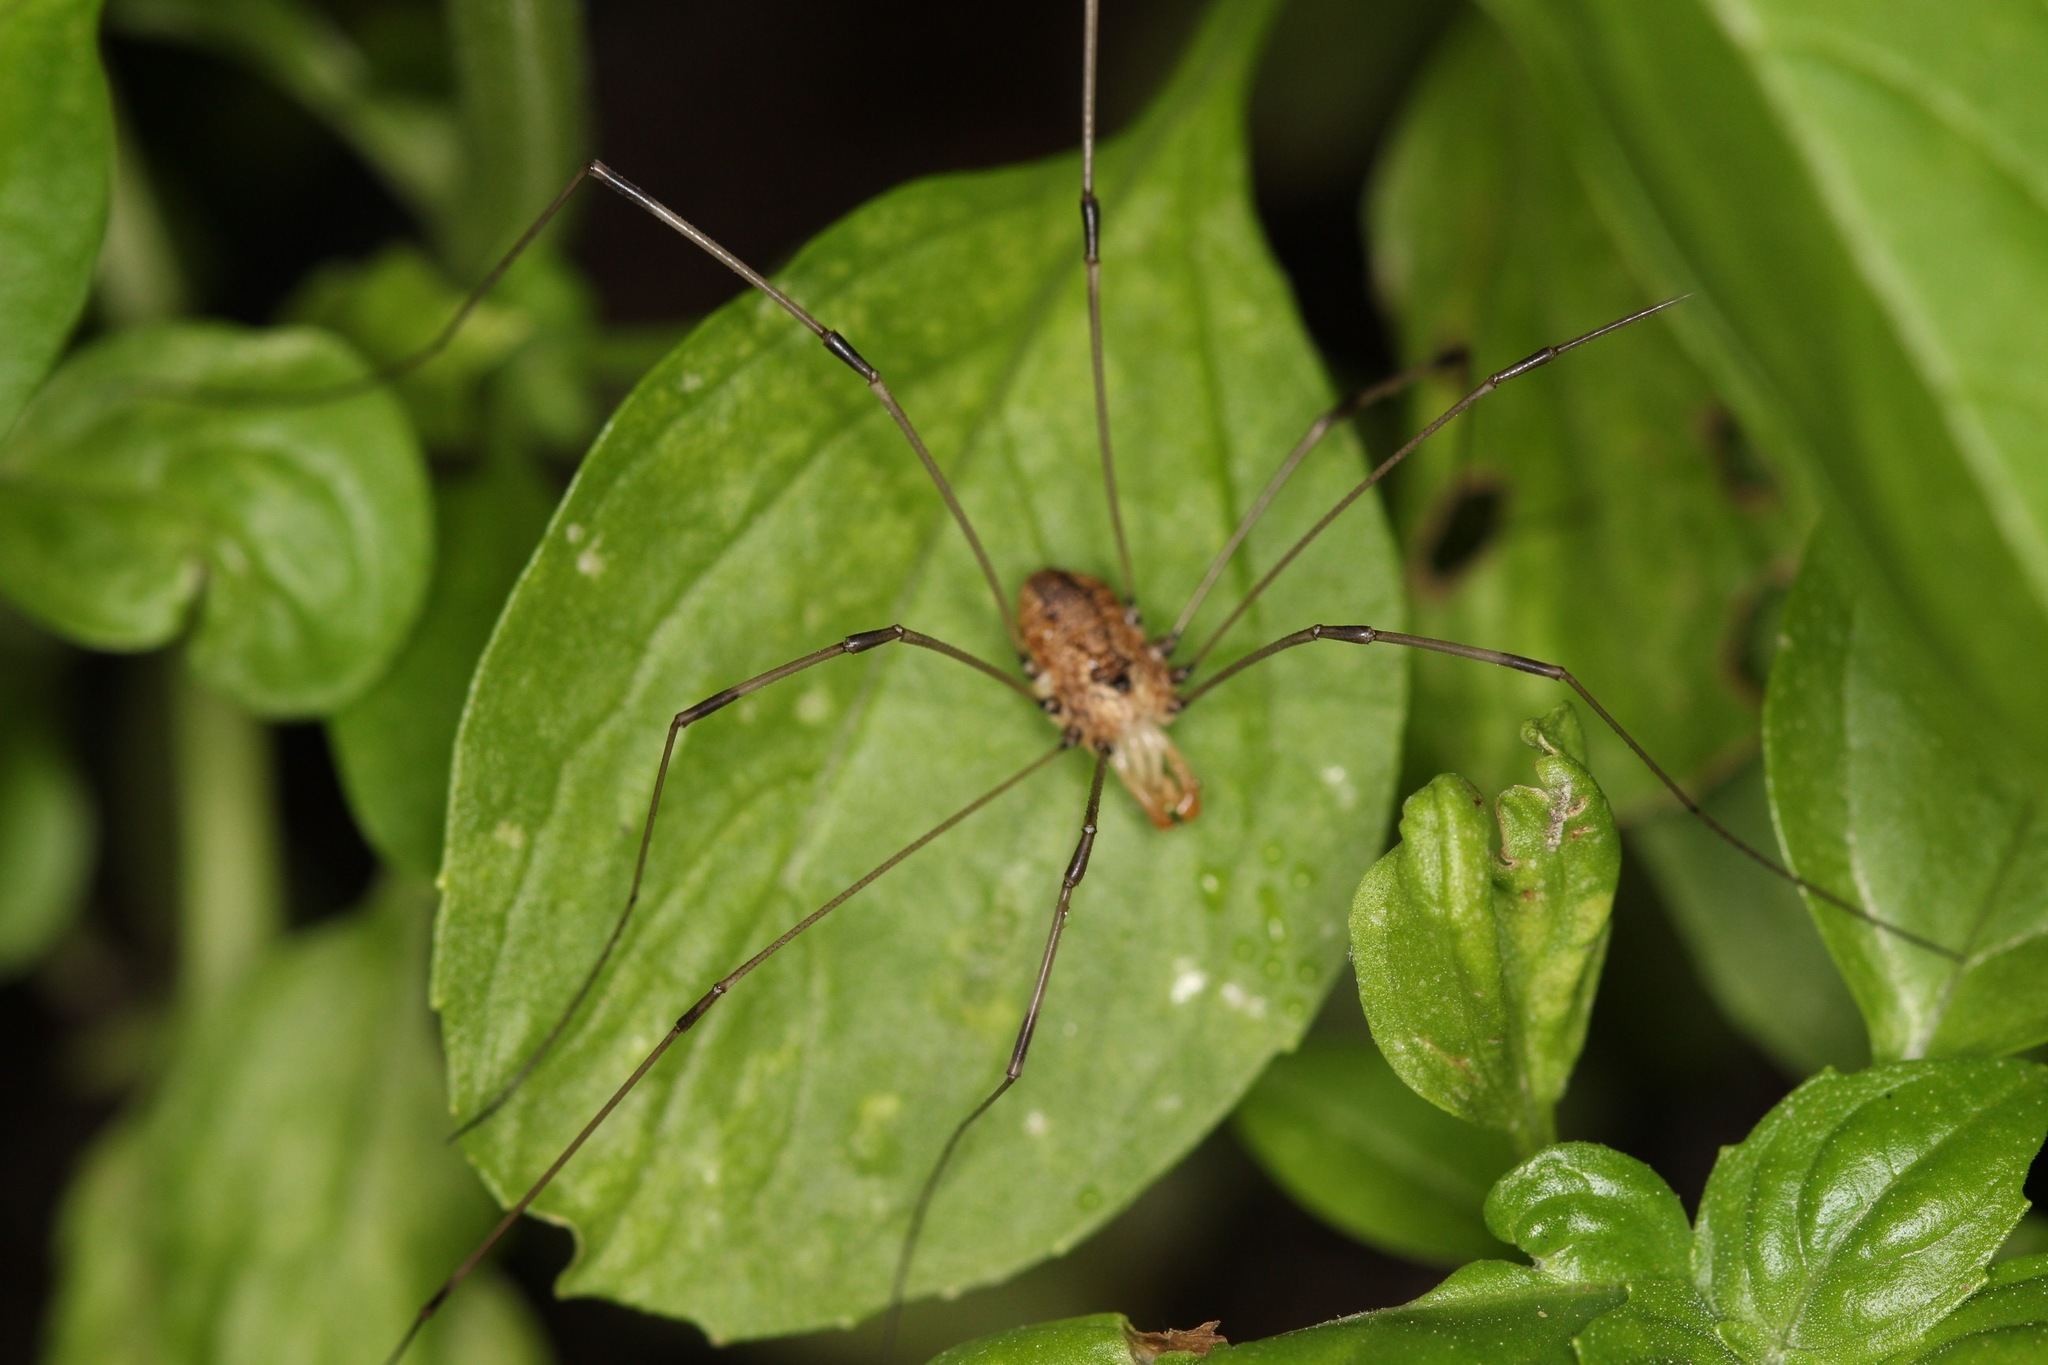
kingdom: Animalia
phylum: Arthropoda
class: Arachnida
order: Opiliones
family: Sclerosomatidae
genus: Leiobunum
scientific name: Leiobunum vittatum
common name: Eastern harvestman
